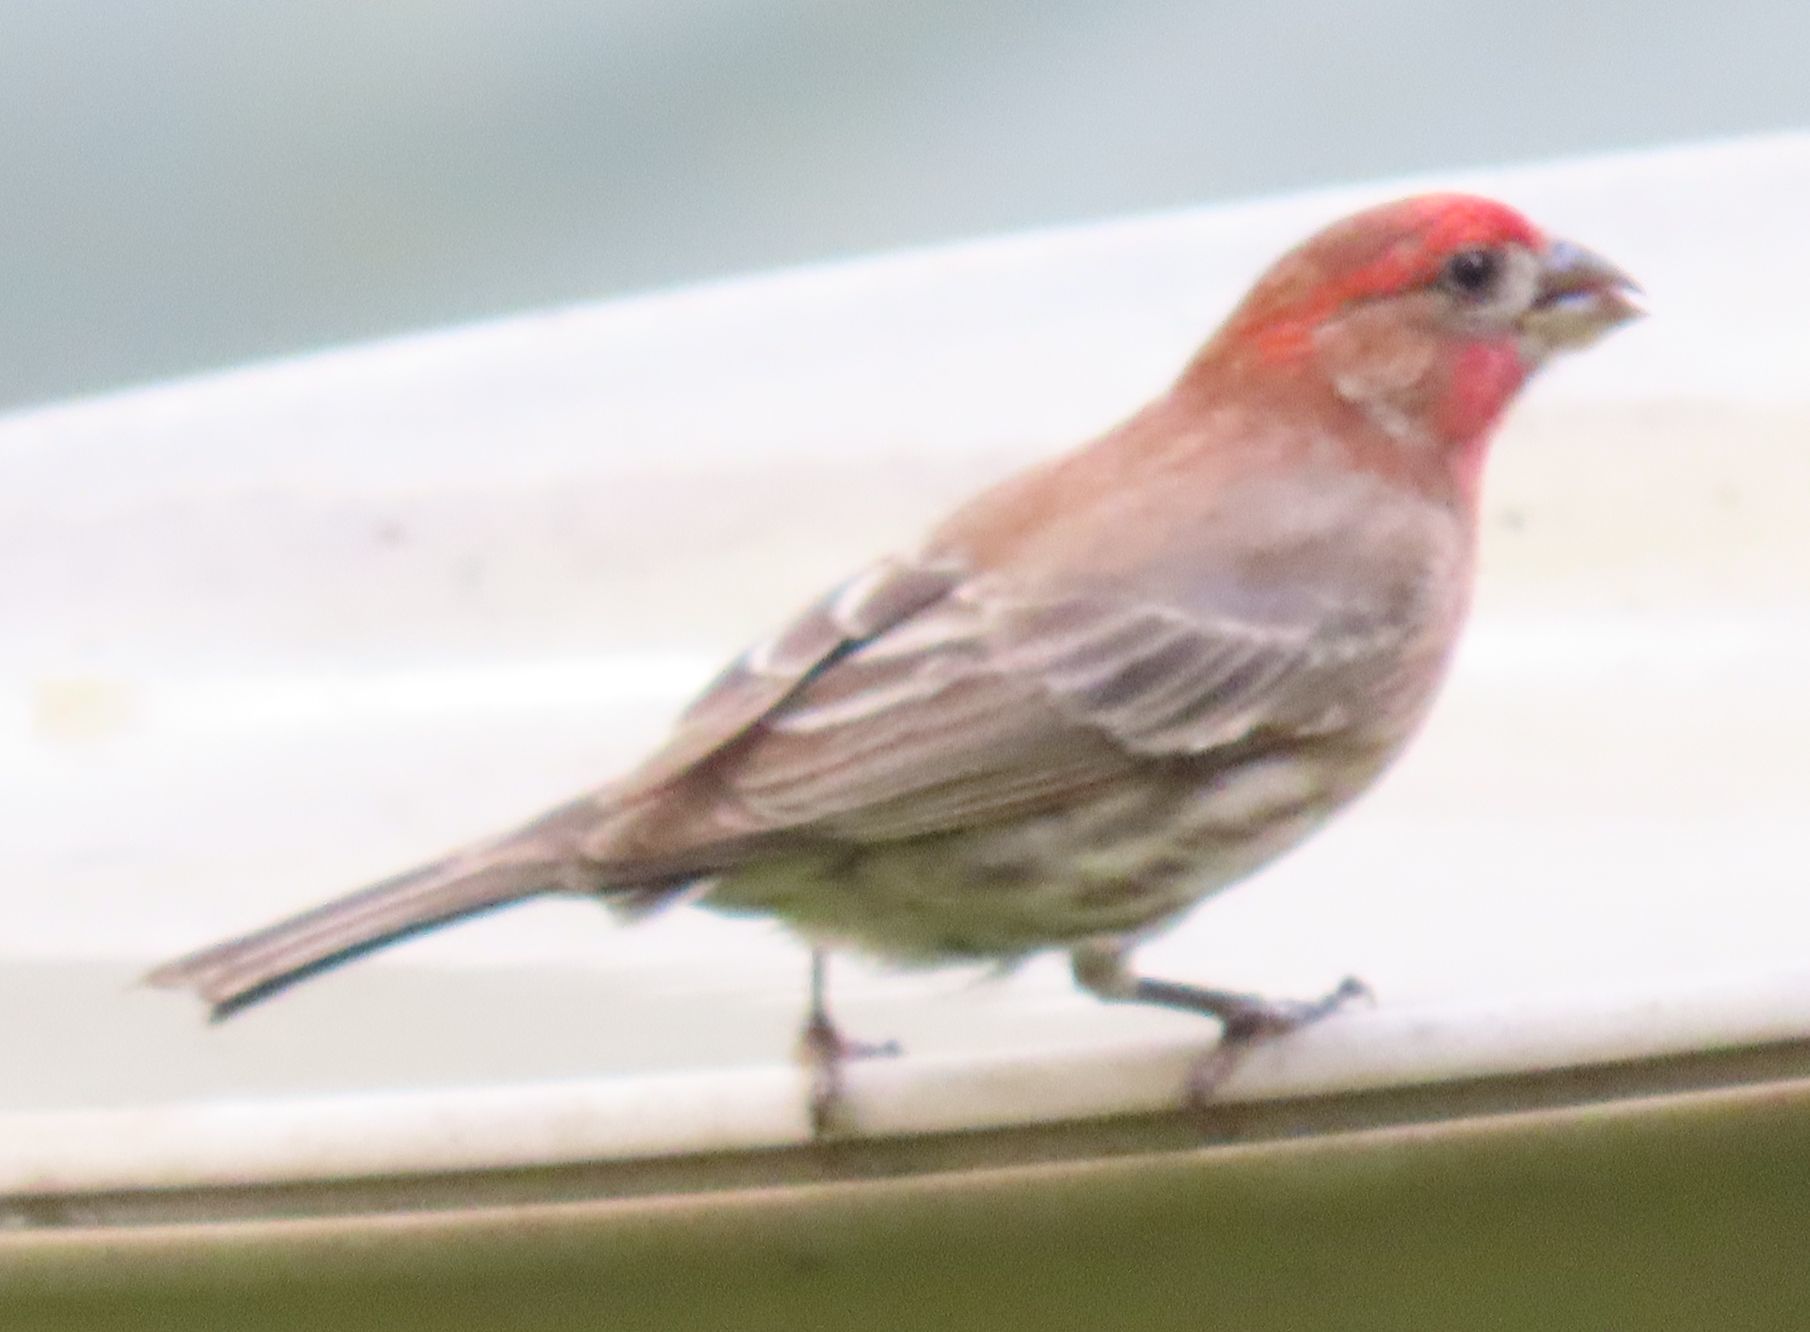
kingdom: Animalia
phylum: Chordata
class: Aves
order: Passeriformes
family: Fringillidae
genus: Haemorhous
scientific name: Haemorhous mexicanus
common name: House finch
